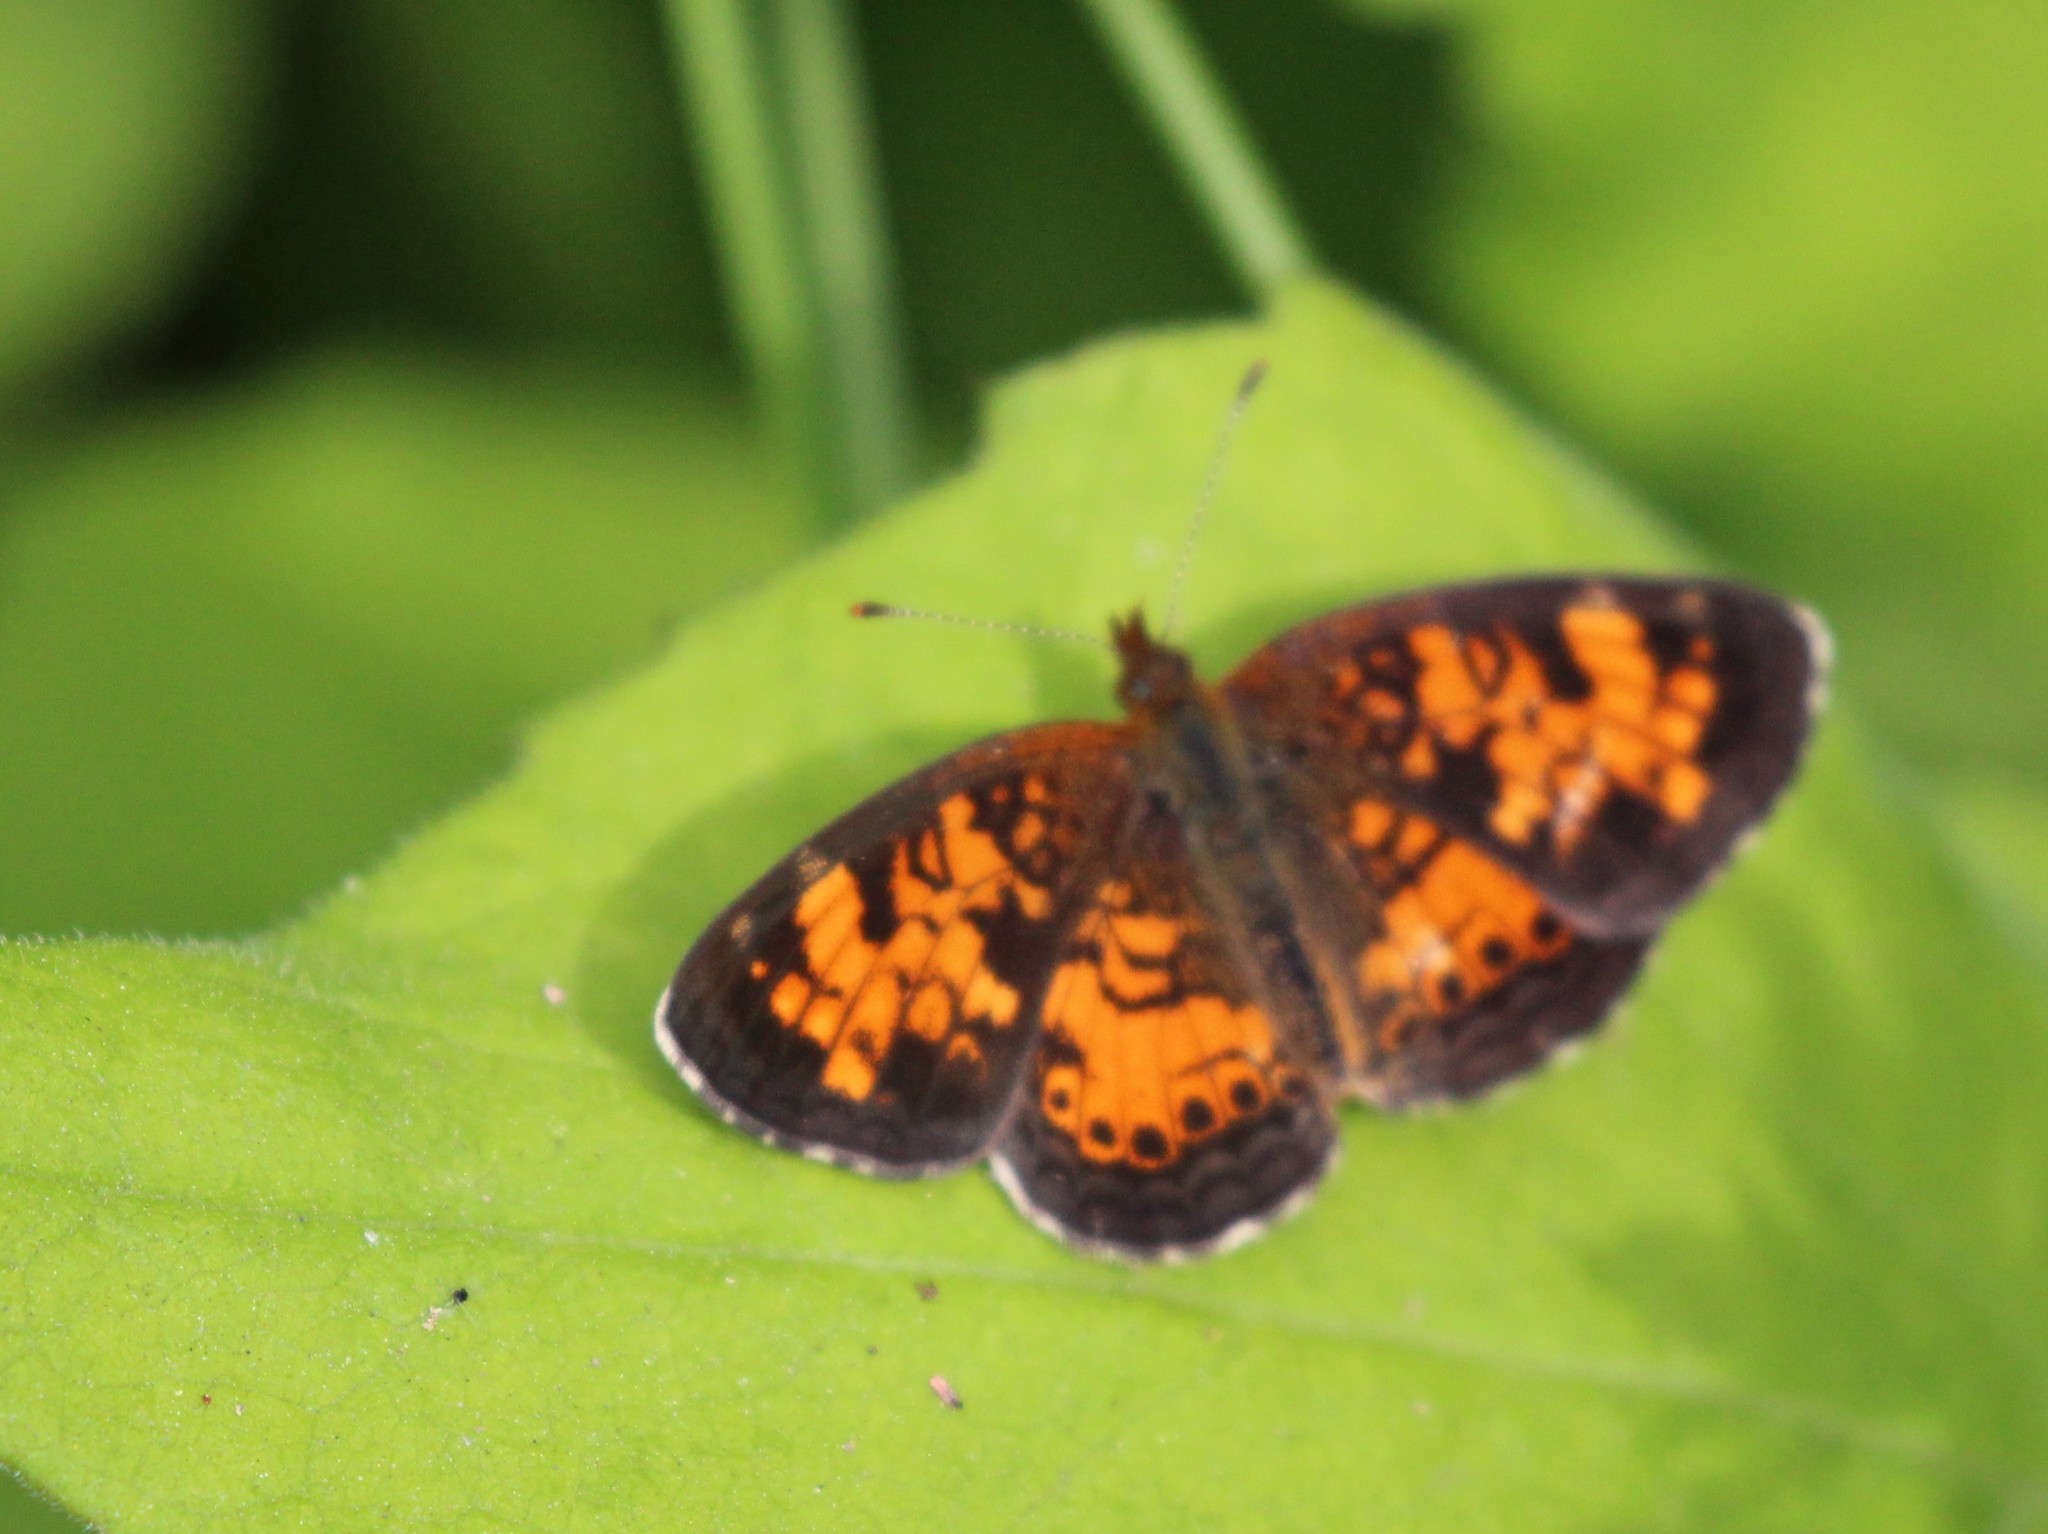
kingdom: Animalia
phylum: Arthropoda
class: Insecta
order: Lepidoptera
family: Nymphalidae
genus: Phyciodes
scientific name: Phyciodes tharos
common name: Pearl crescent
